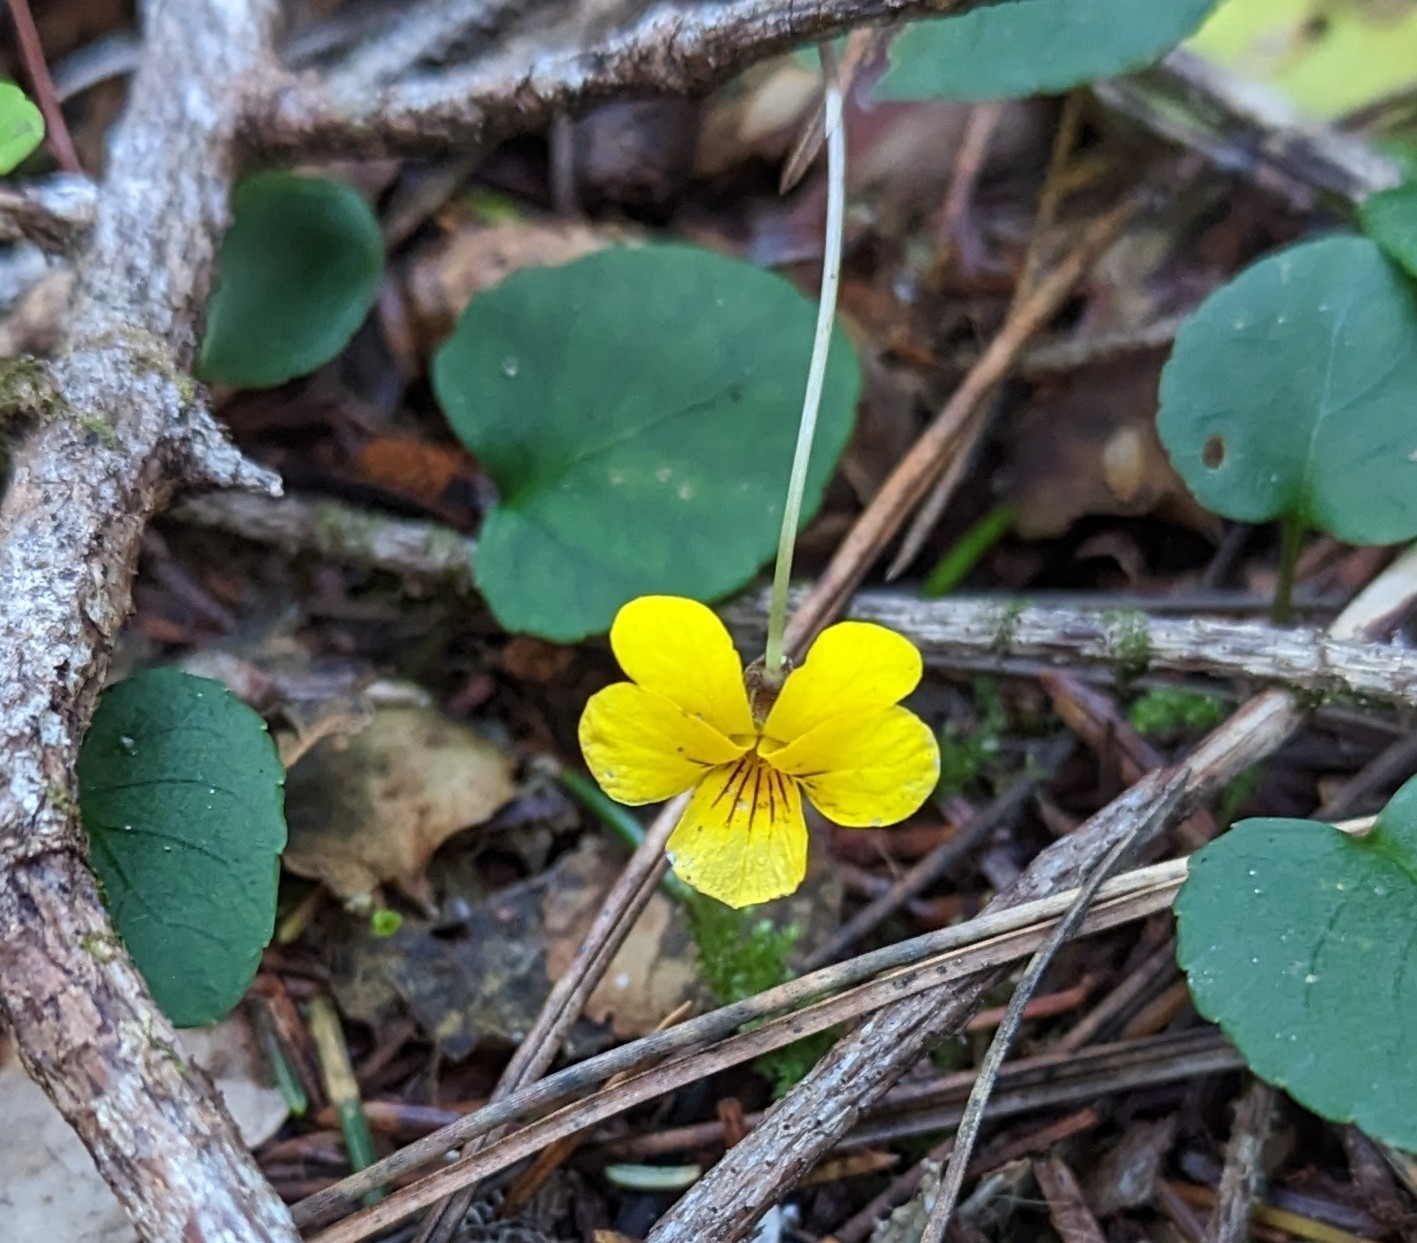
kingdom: Plantae
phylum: Tracheophyta
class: Magnoliopsida
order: Malpighiales
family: Violaceae
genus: Viola
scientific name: Viola sempervirens
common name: Evergreen violet
